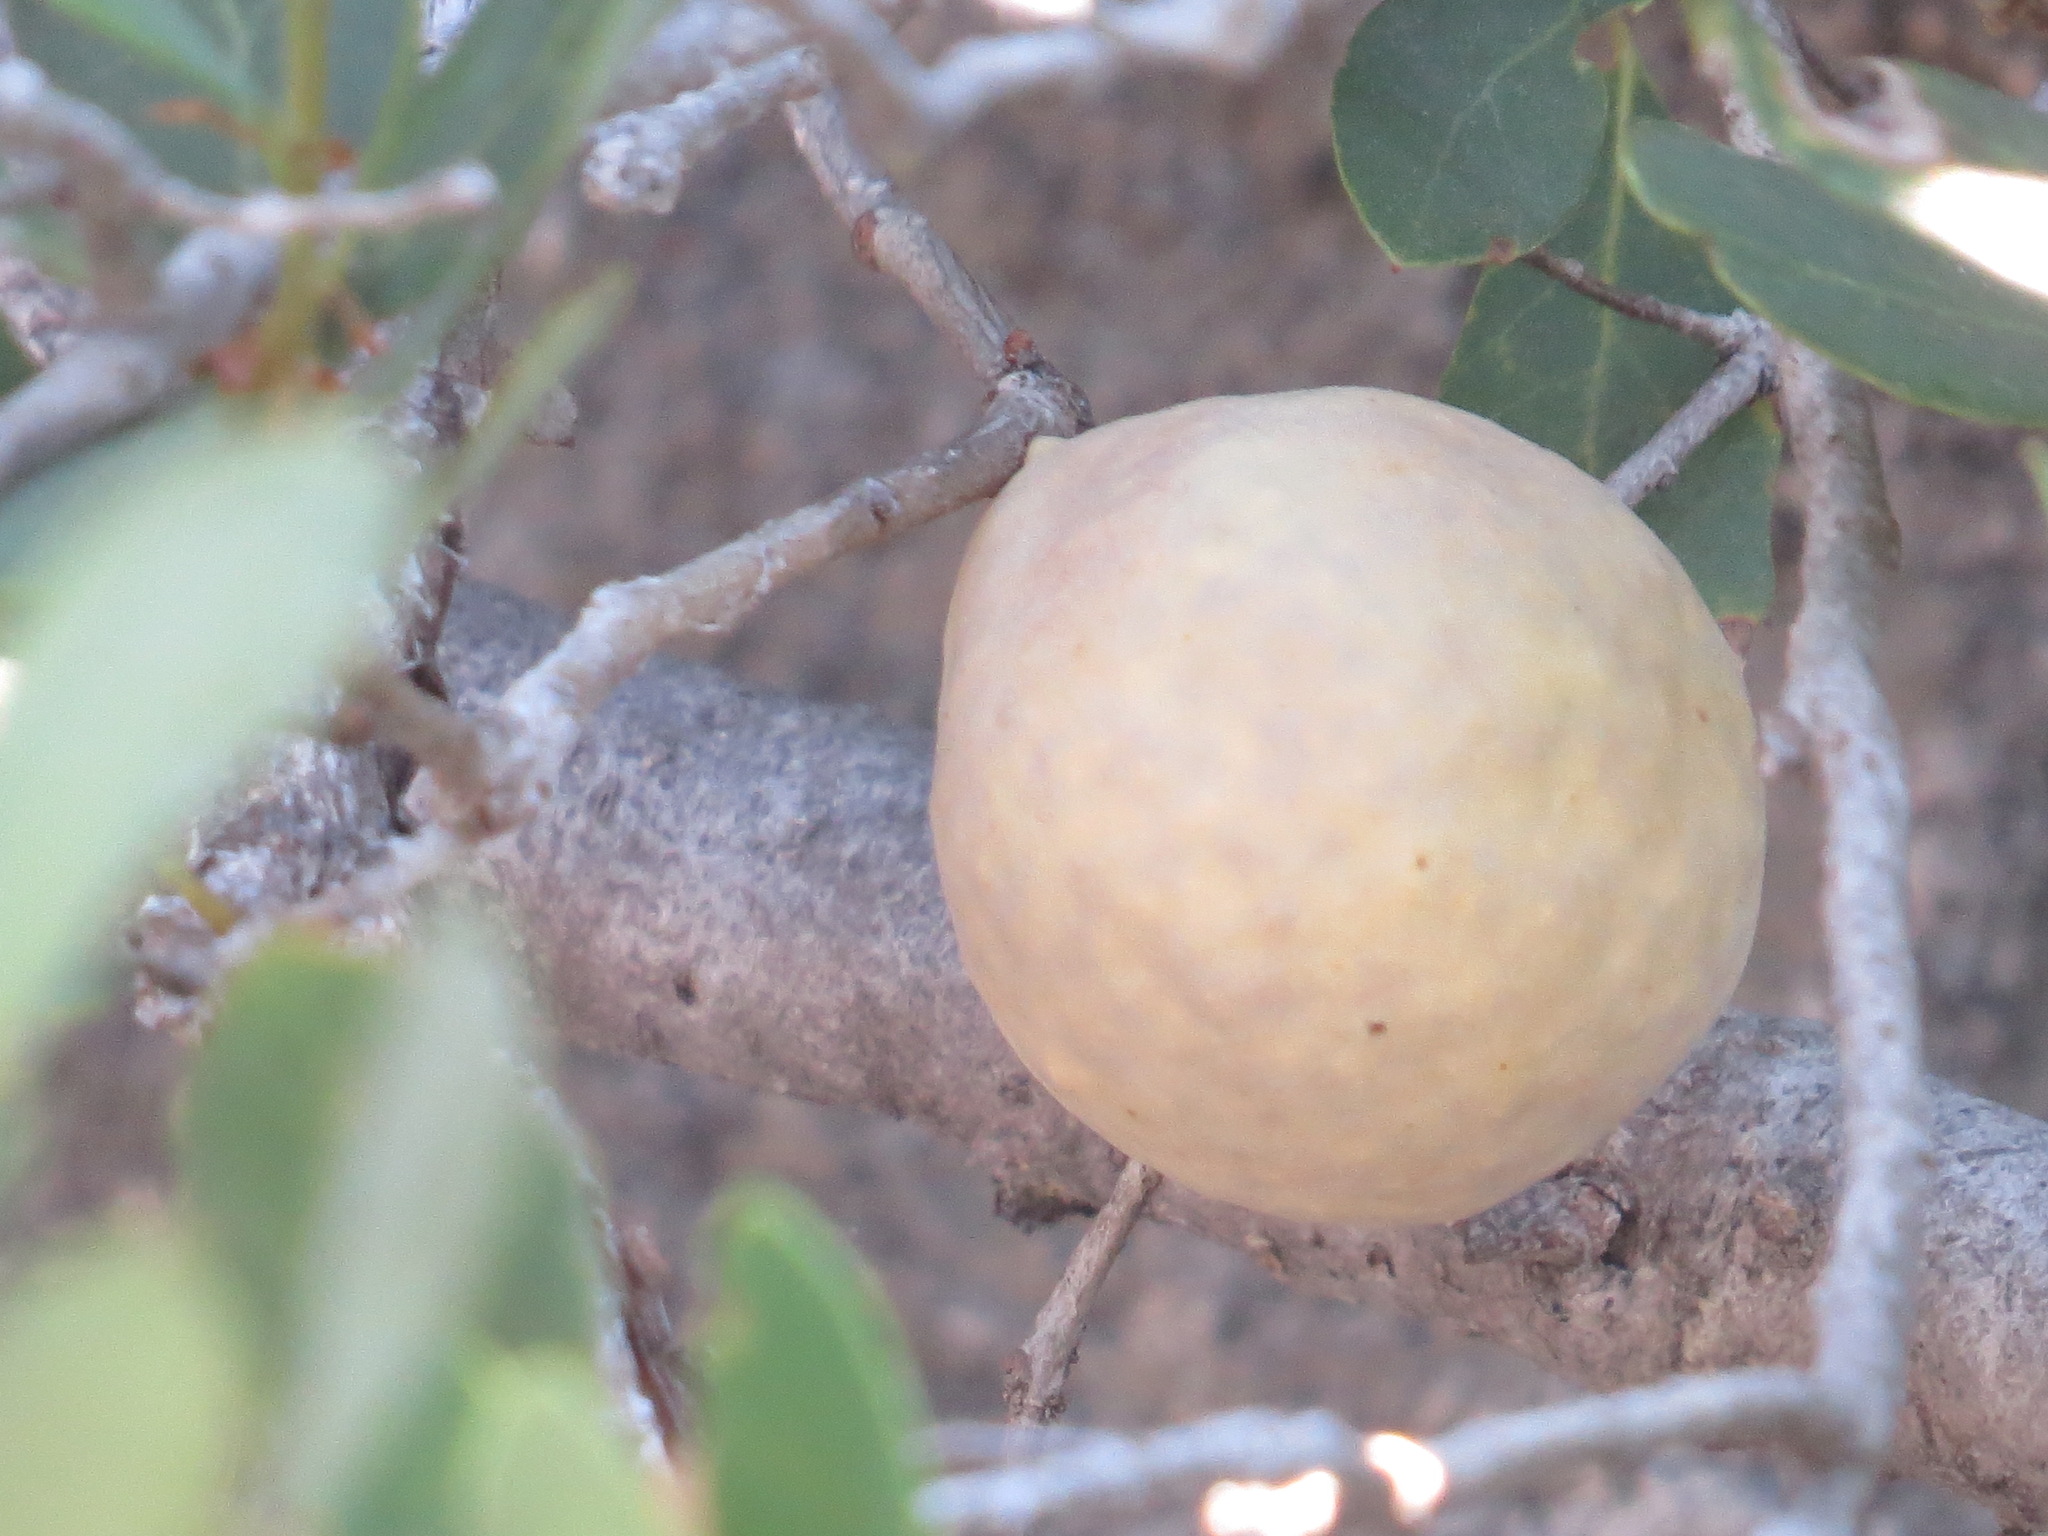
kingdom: Animalia
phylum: Arthropoda
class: Insecta
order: Hymenoptera
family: Cynipidae
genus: Andricus
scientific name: Andricus
